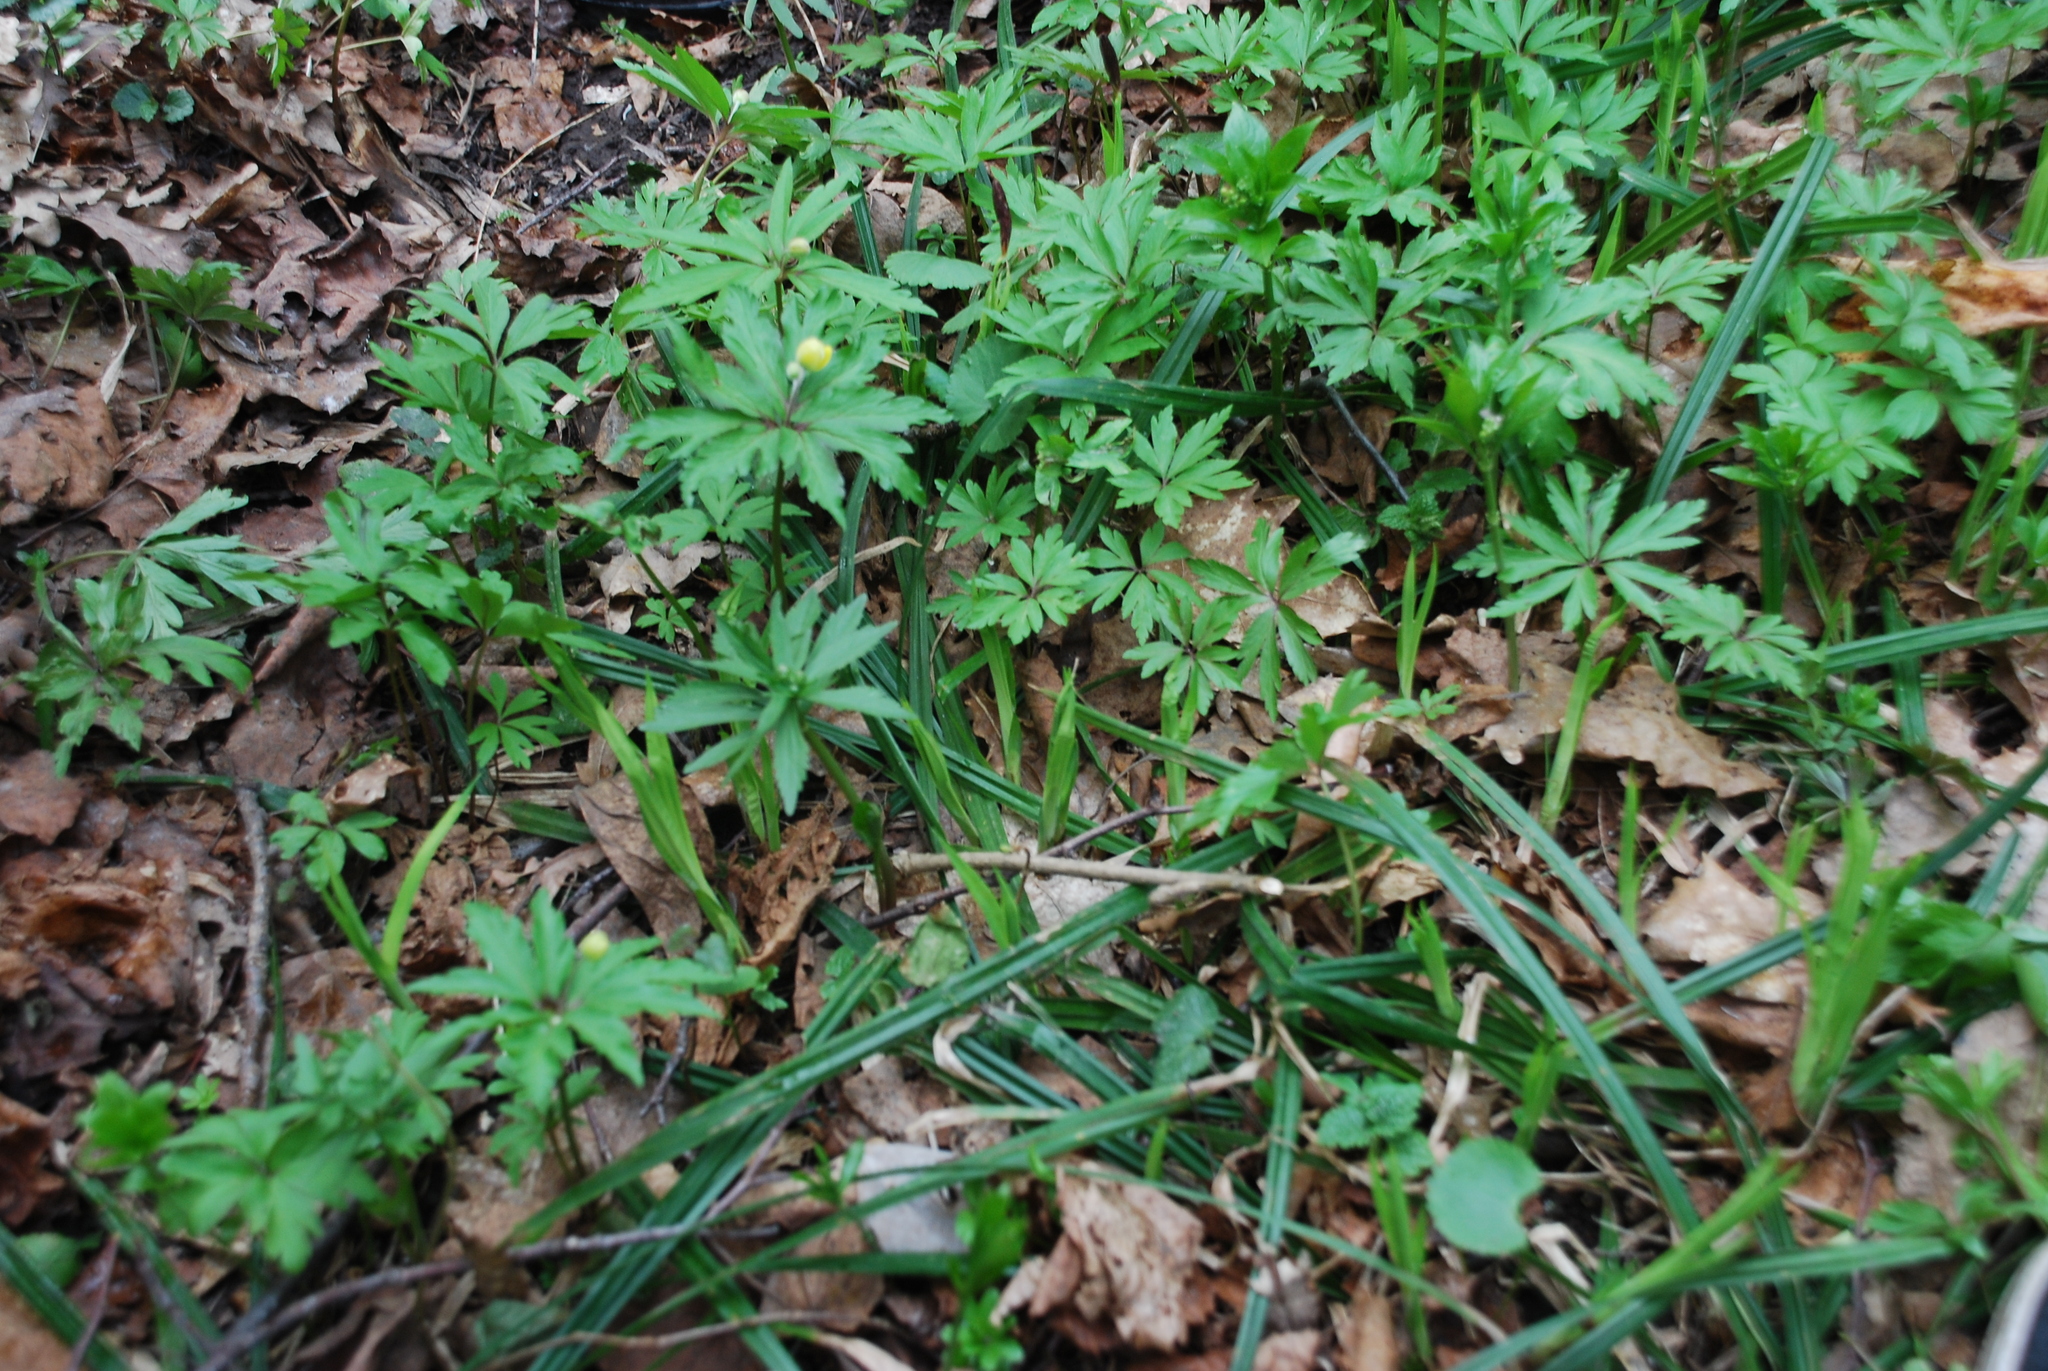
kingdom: Plantae
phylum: Tracheophyta
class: Magnoliopsida
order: Ranunculales
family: Ranunculaceae
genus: Anemone
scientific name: Anemone ranunculoides
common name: Yellow anemone
